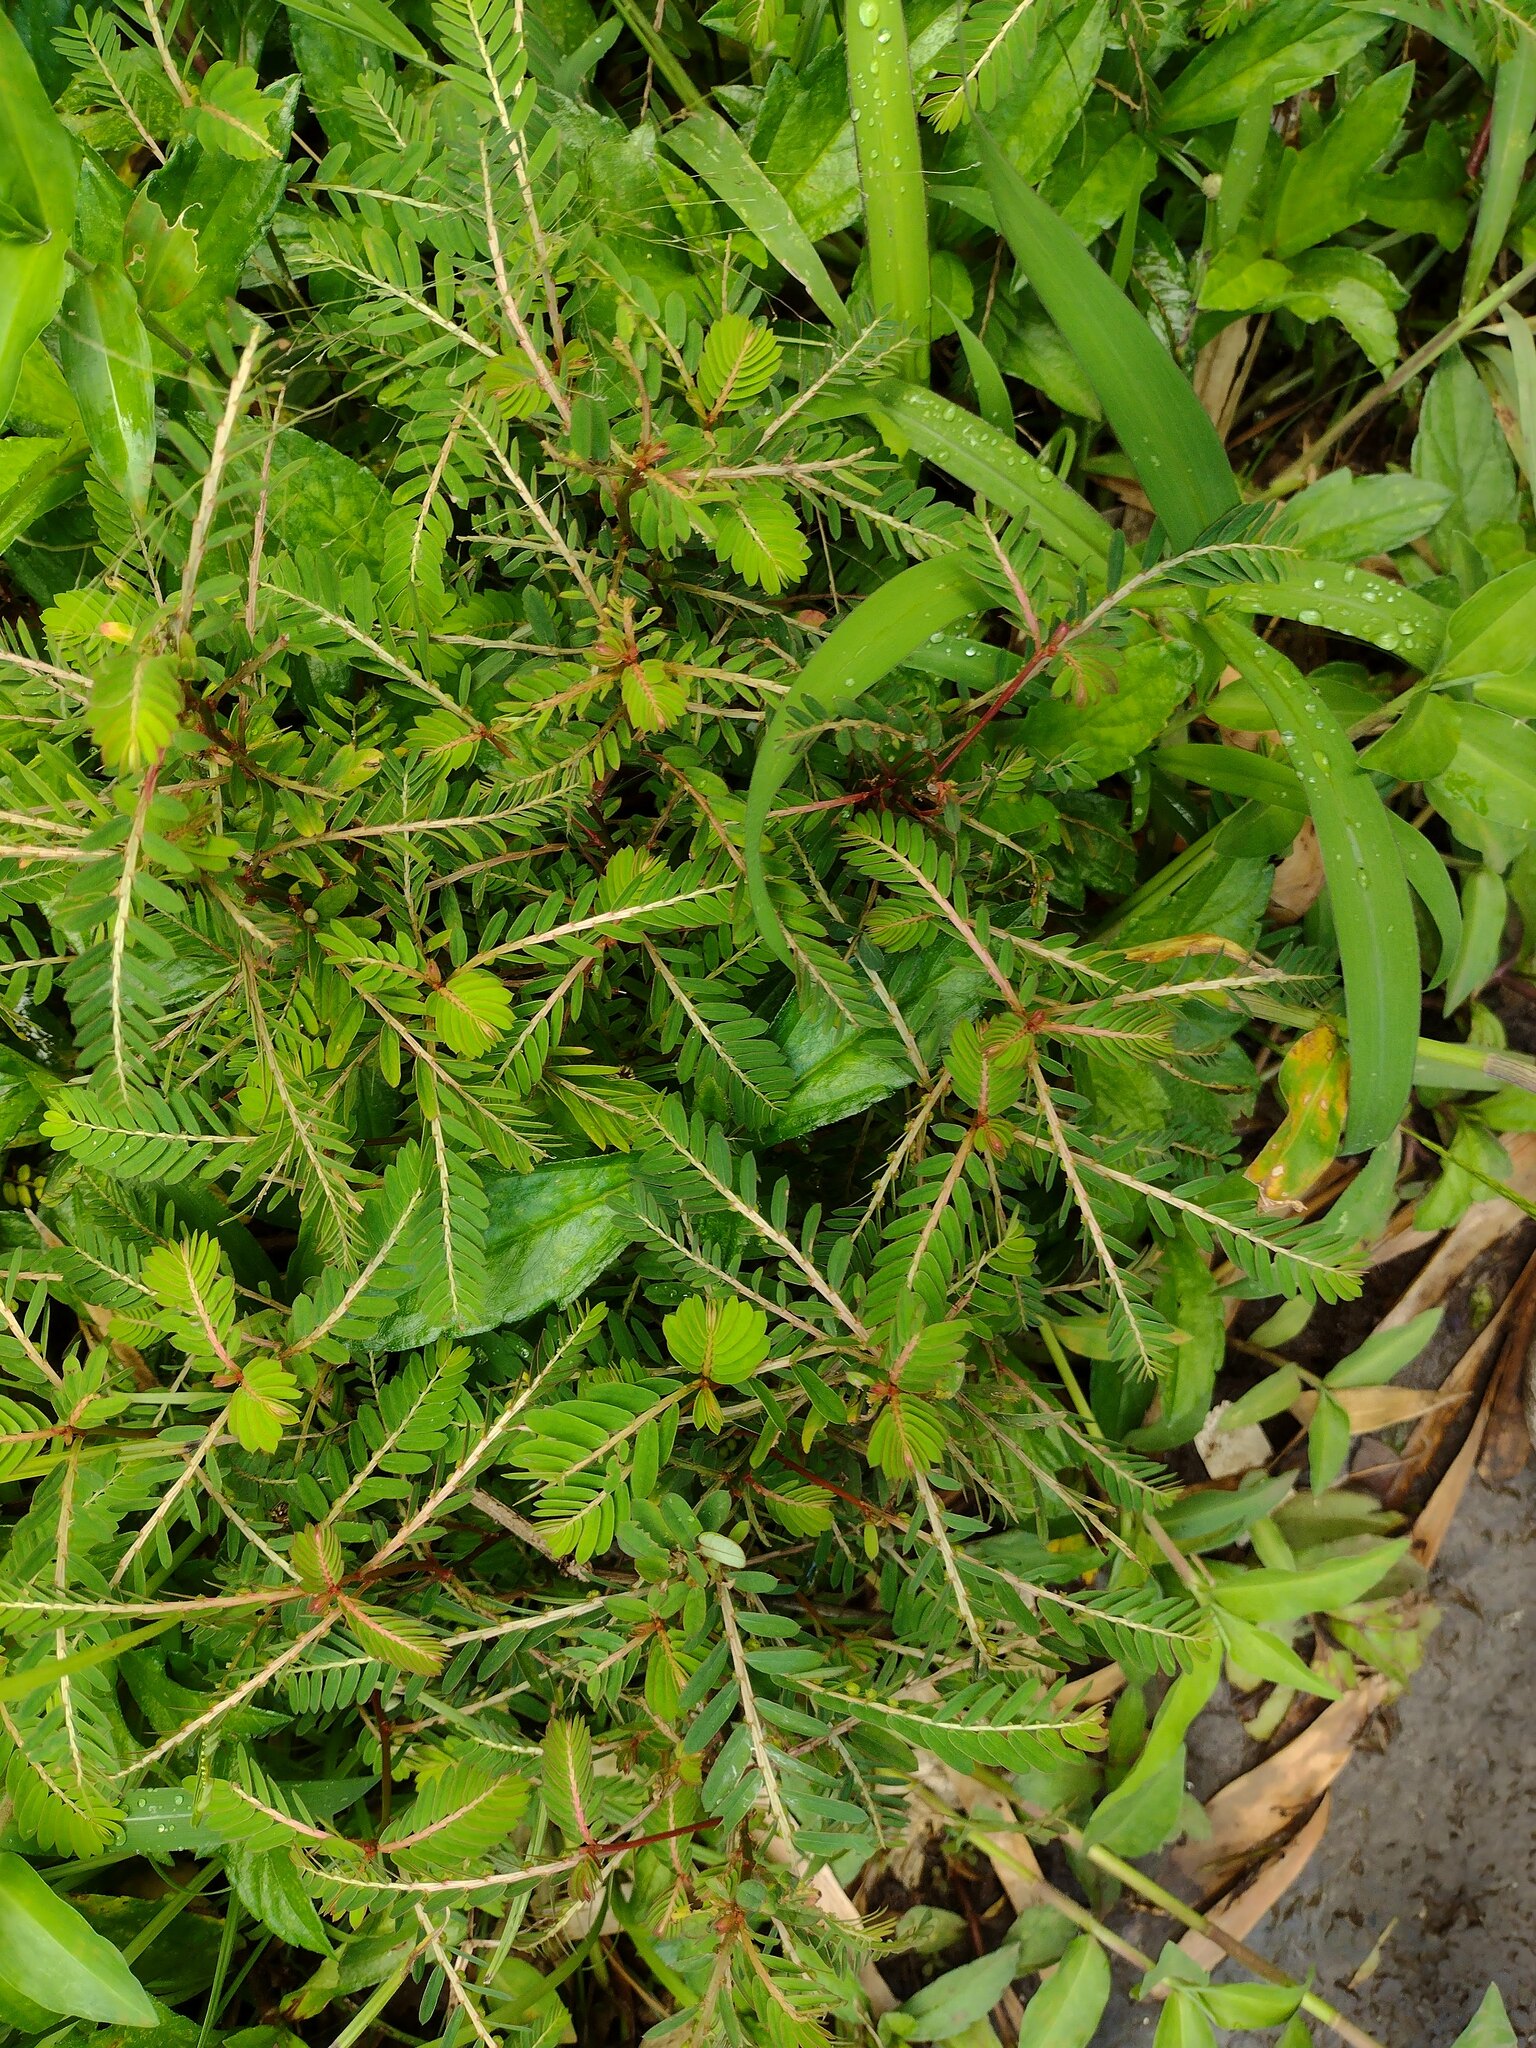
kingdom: Plantae
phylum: Tracheophyta
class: Magnoliopsida
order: Malpighiales
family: Phyllanthaceae
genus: Phyllanthus
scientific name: Phyllanthus urinaria
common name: Chamber bitter
